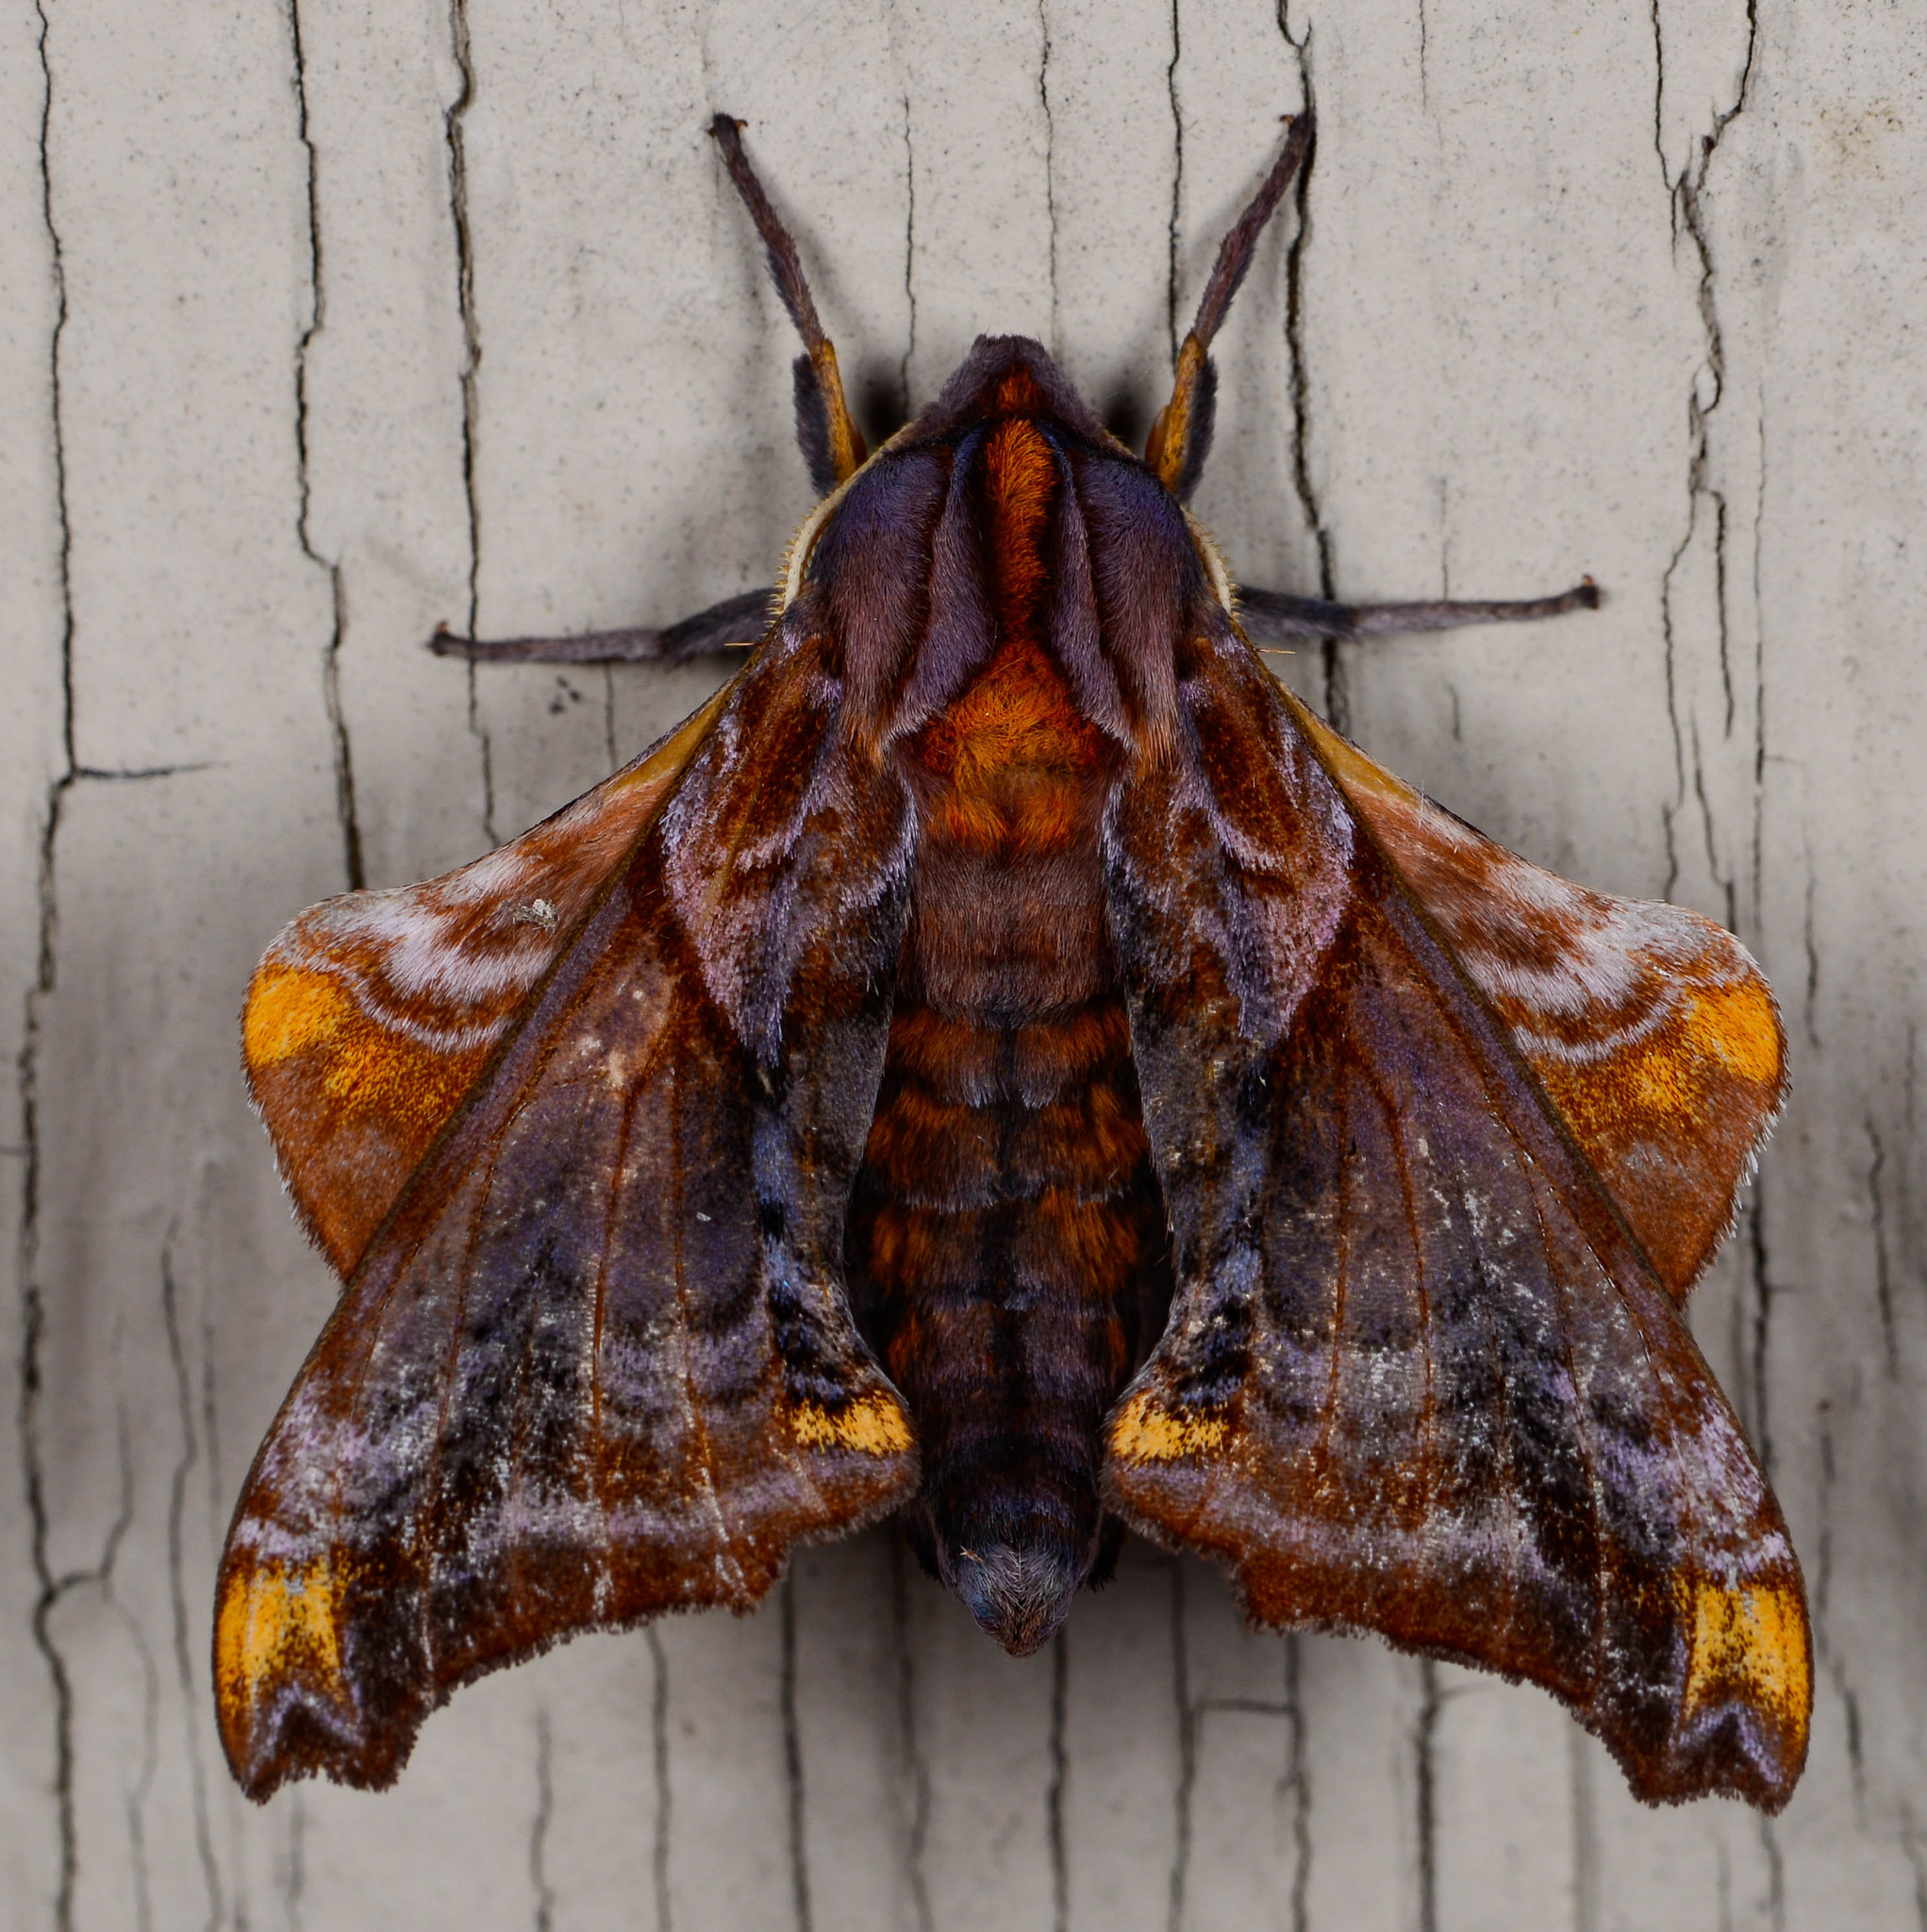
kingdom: Animalia
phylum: Arthropoda
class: Insecta
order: Lepidoptera
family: Sphingidae
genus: Paonias
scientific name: Paonias myops
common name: Small-eyed sphinx
